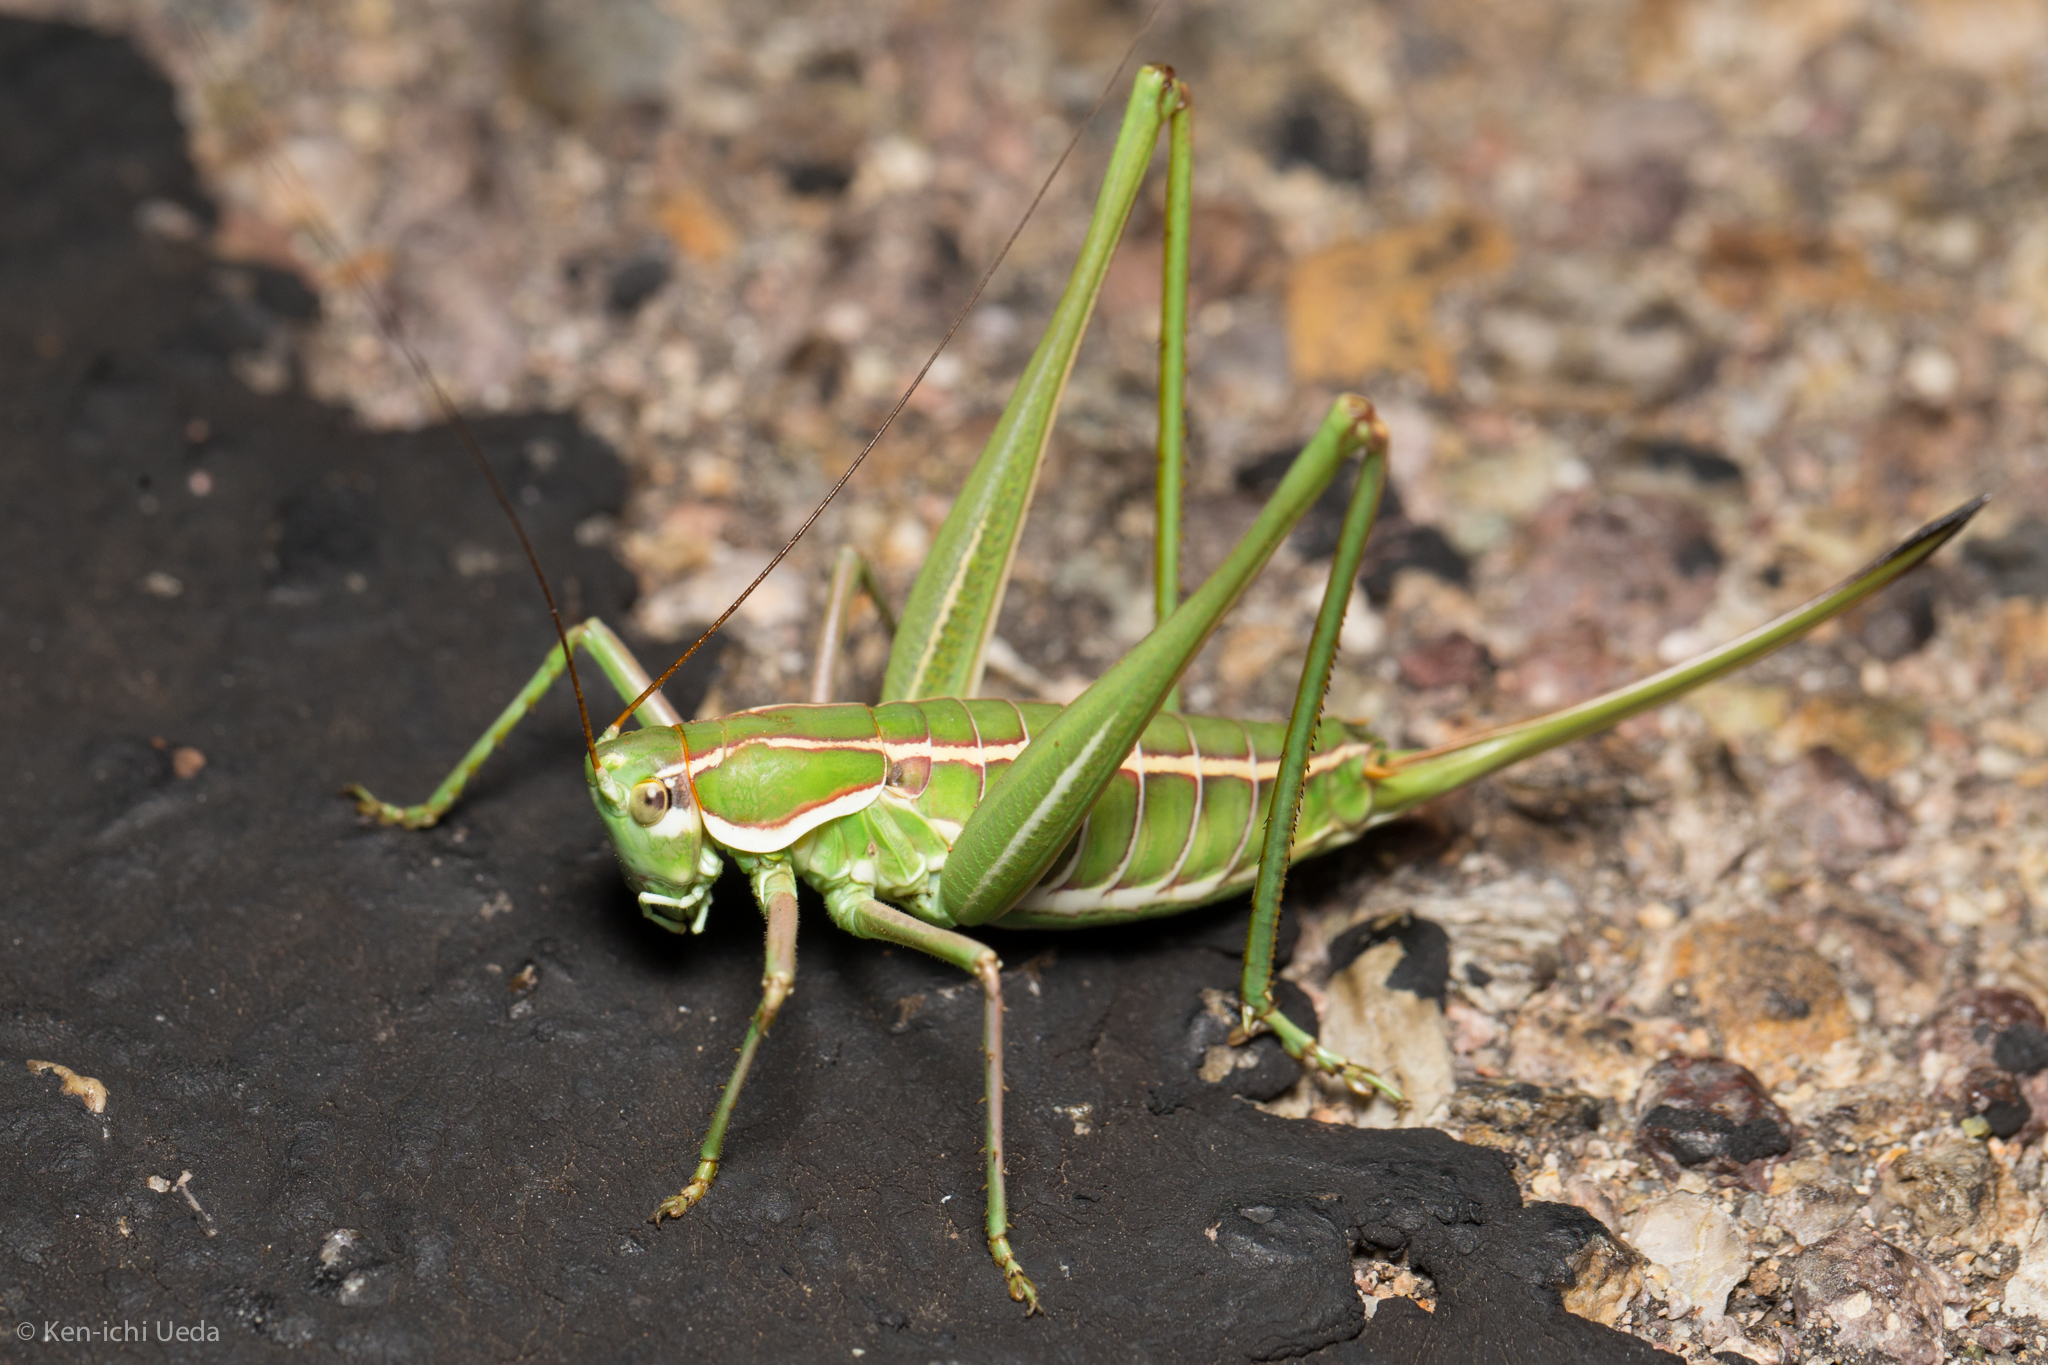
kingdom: Animalia
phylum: Arthropoda
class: Insecta
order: Orthoptera
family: Tettigoniidae
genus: Eremopedes
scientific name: Eremopedes bilineatus
